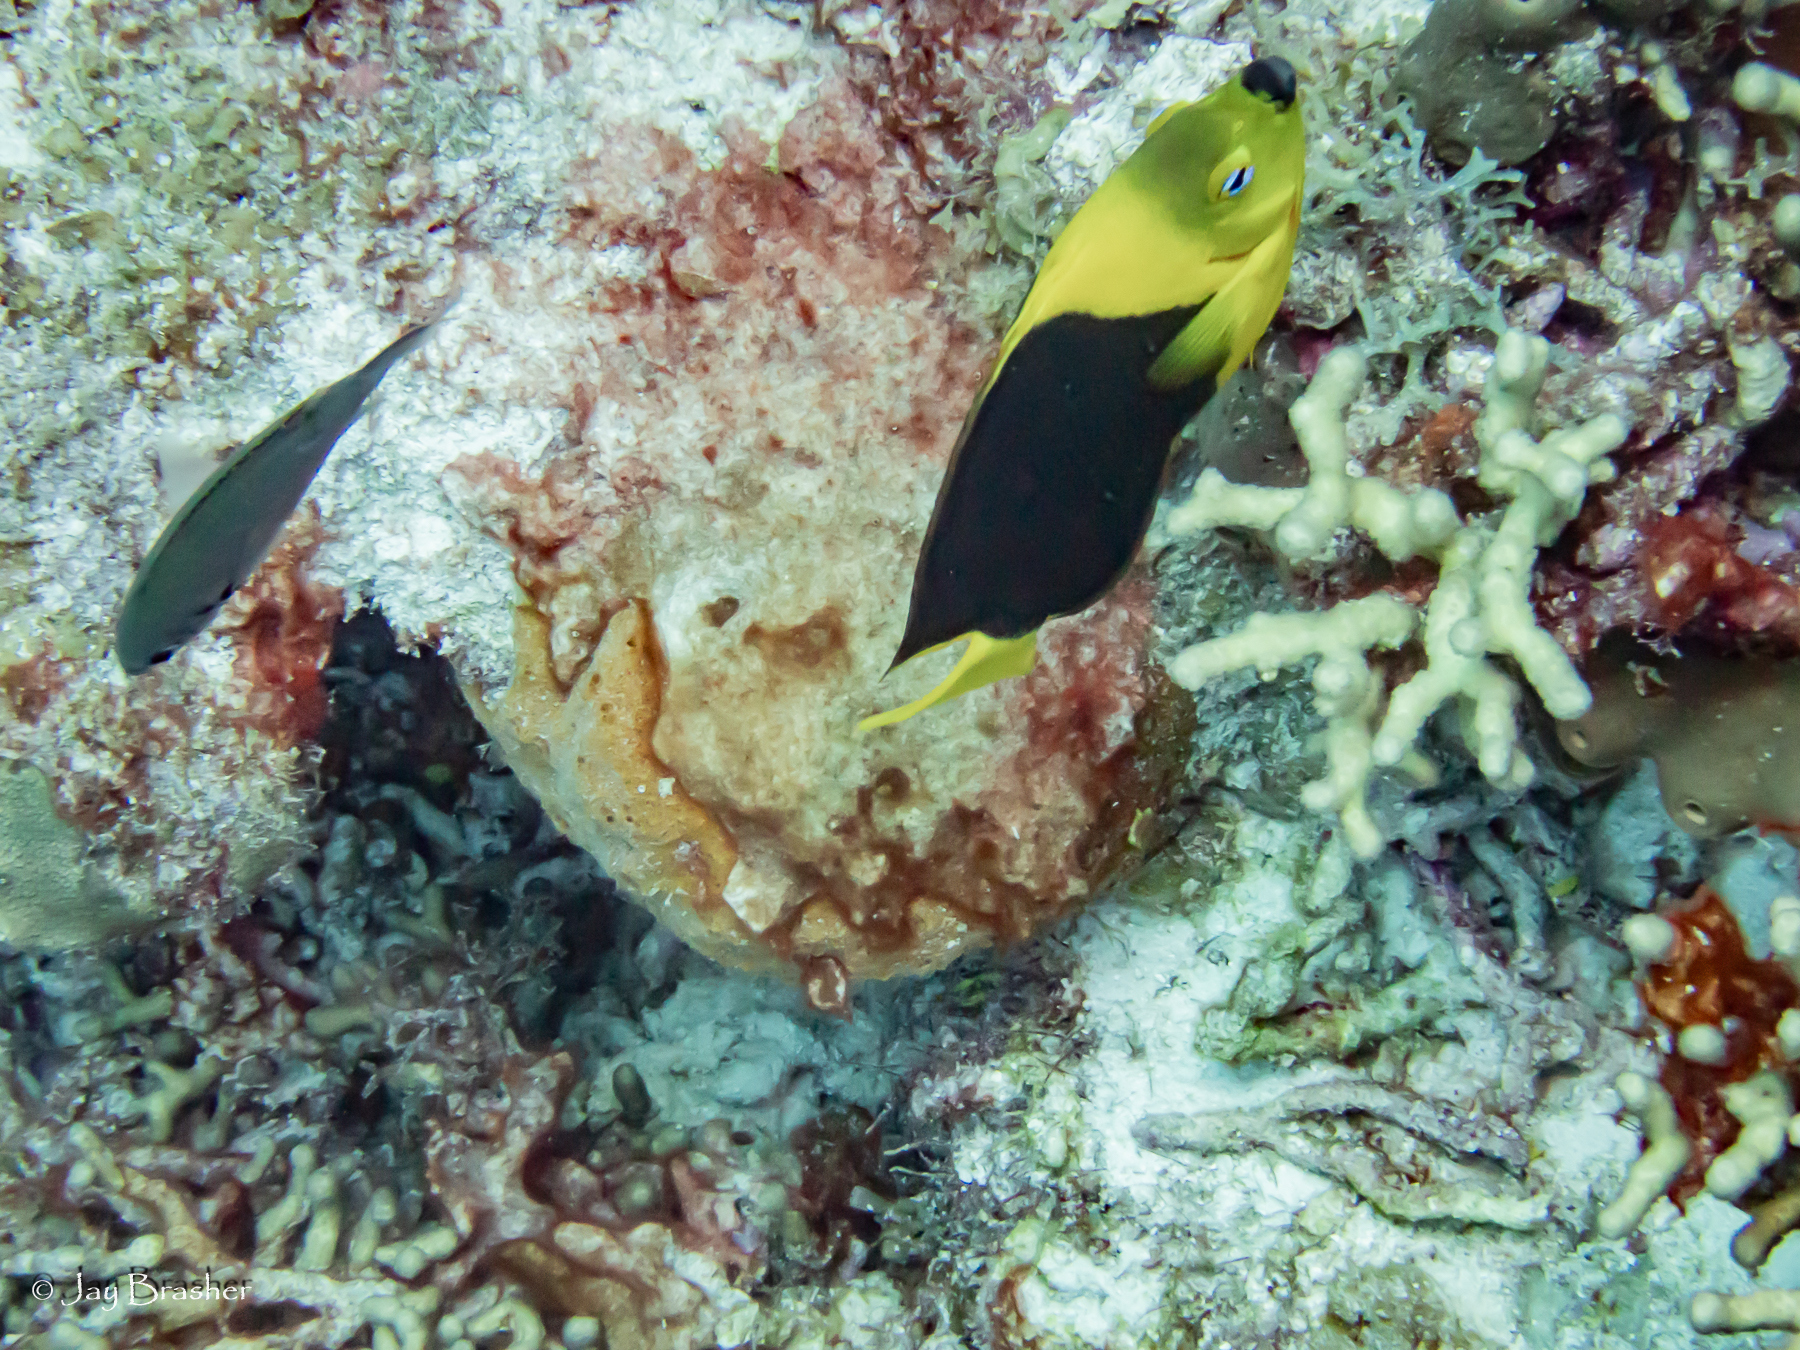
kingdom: Animalia
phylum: Chordata
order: Perciformes
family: Pomacentridae
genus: Chromis
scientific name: Chromis multilineata
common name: Brown chromis
